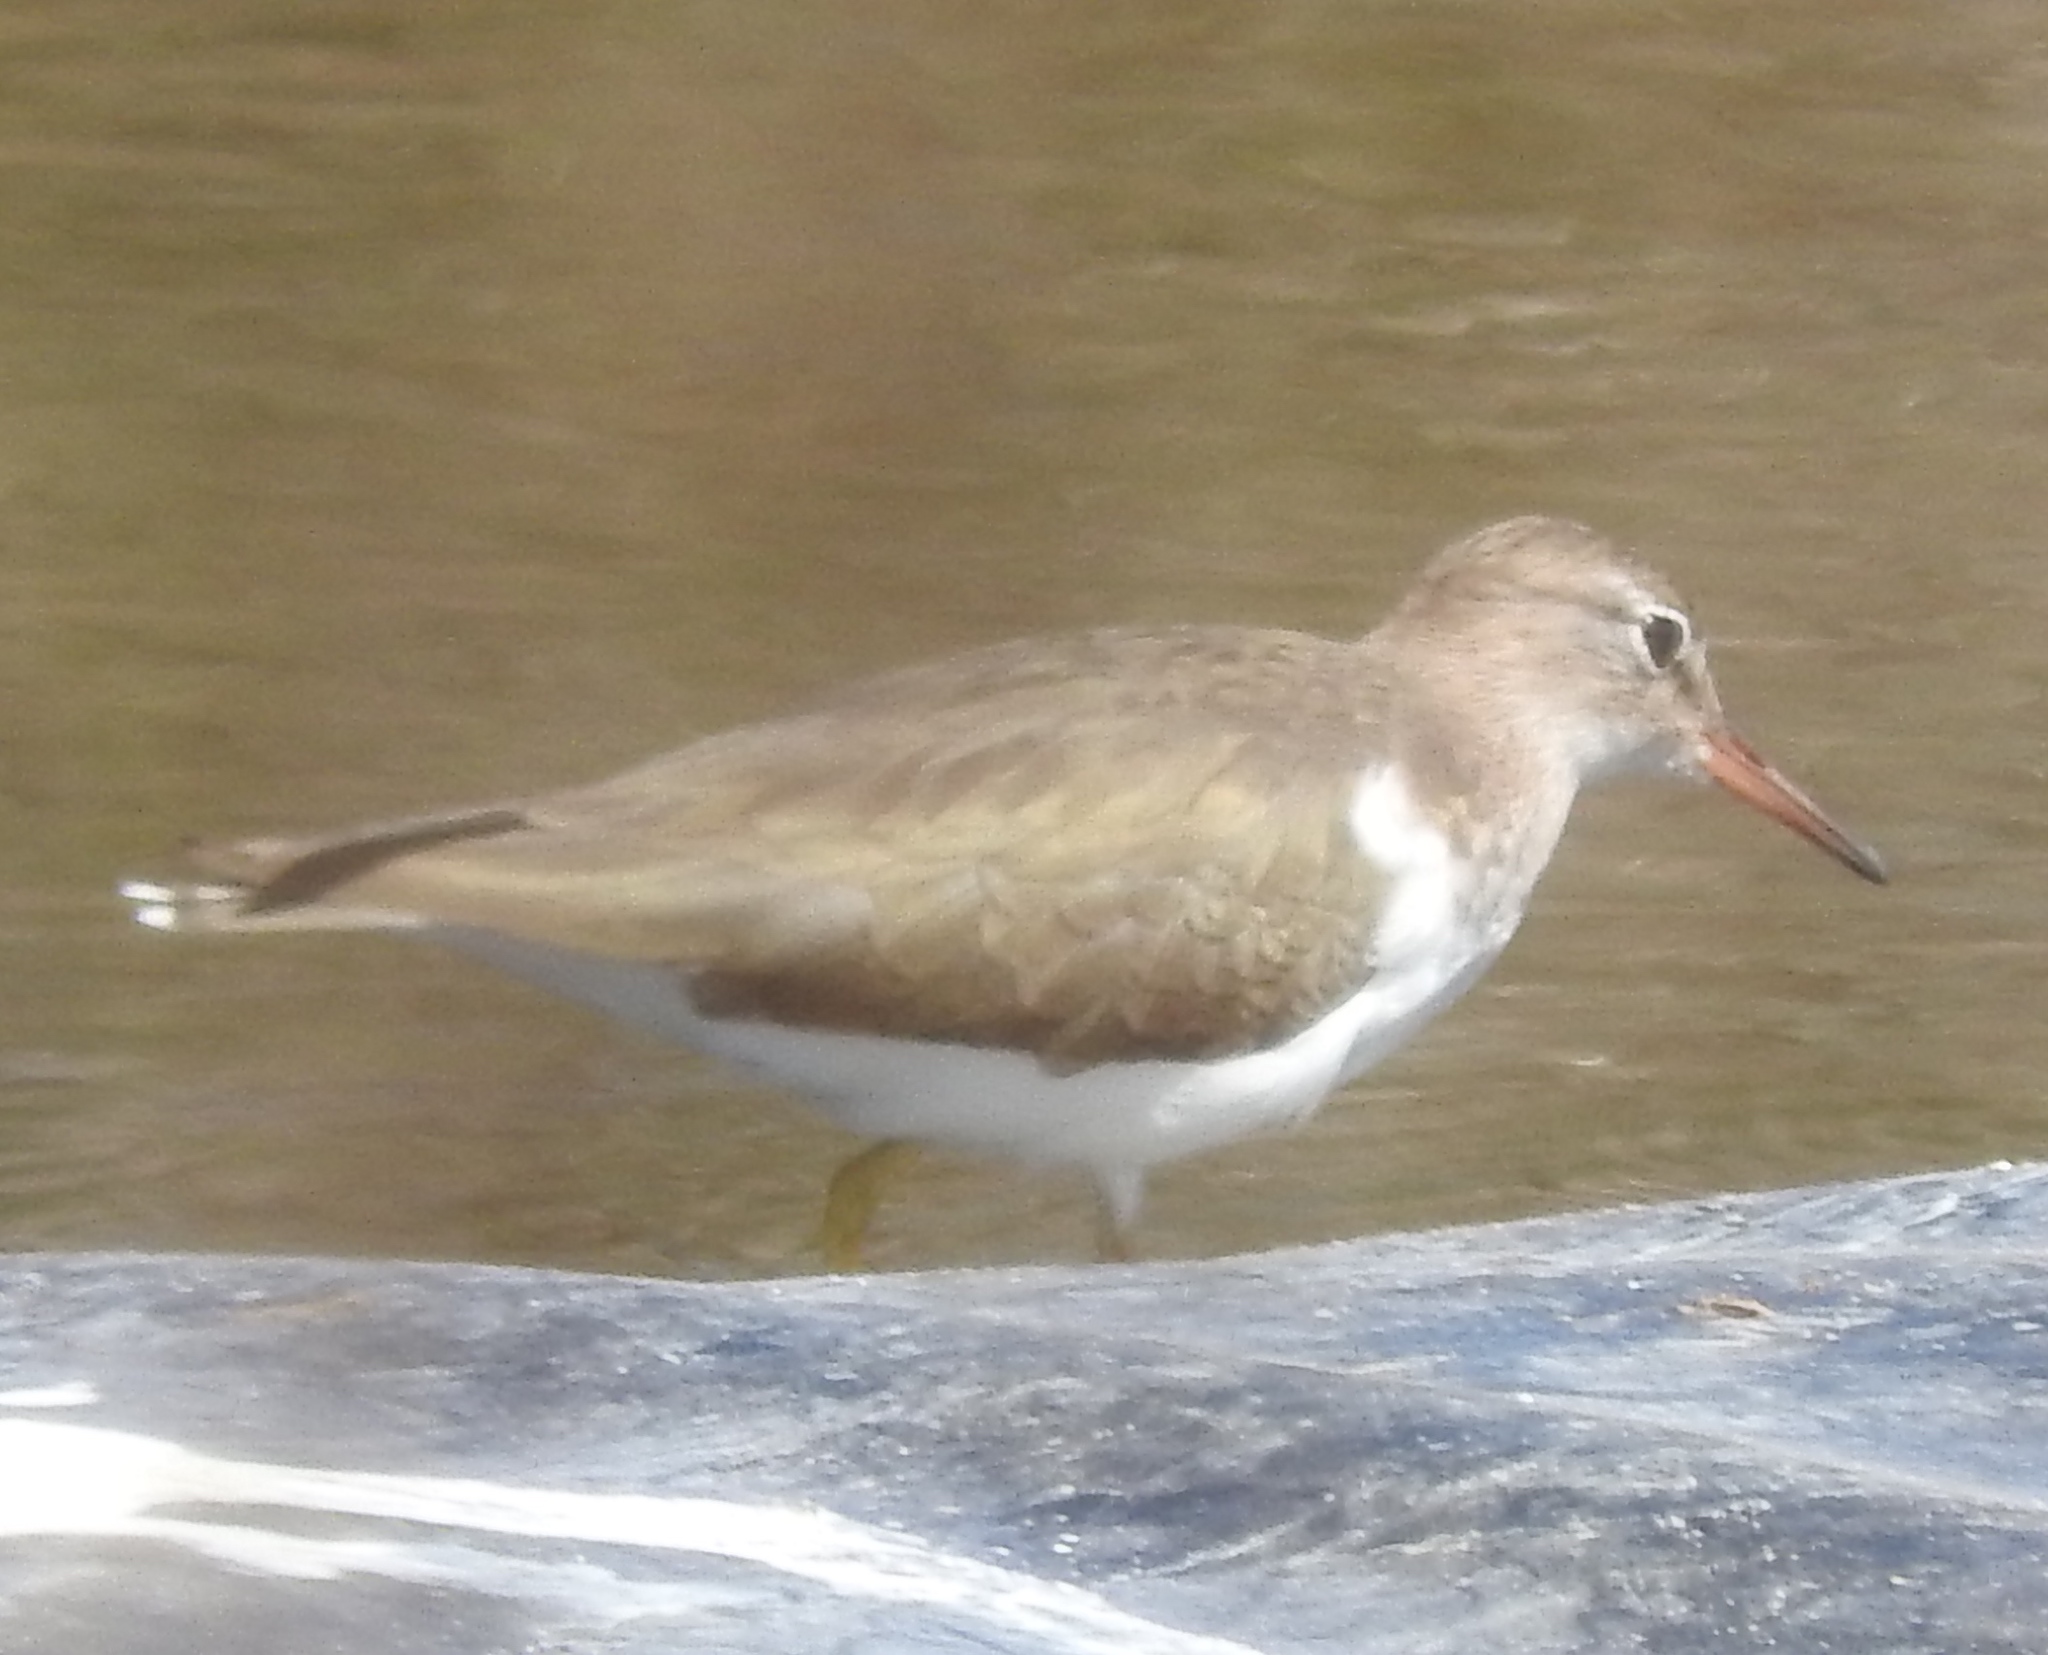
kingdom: Animalia
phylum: Chordata
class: Aves
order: Charadriiformes
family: Scolopacidae
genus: Actitis
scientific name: Actitis macularius
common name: Spotted sandpiper
